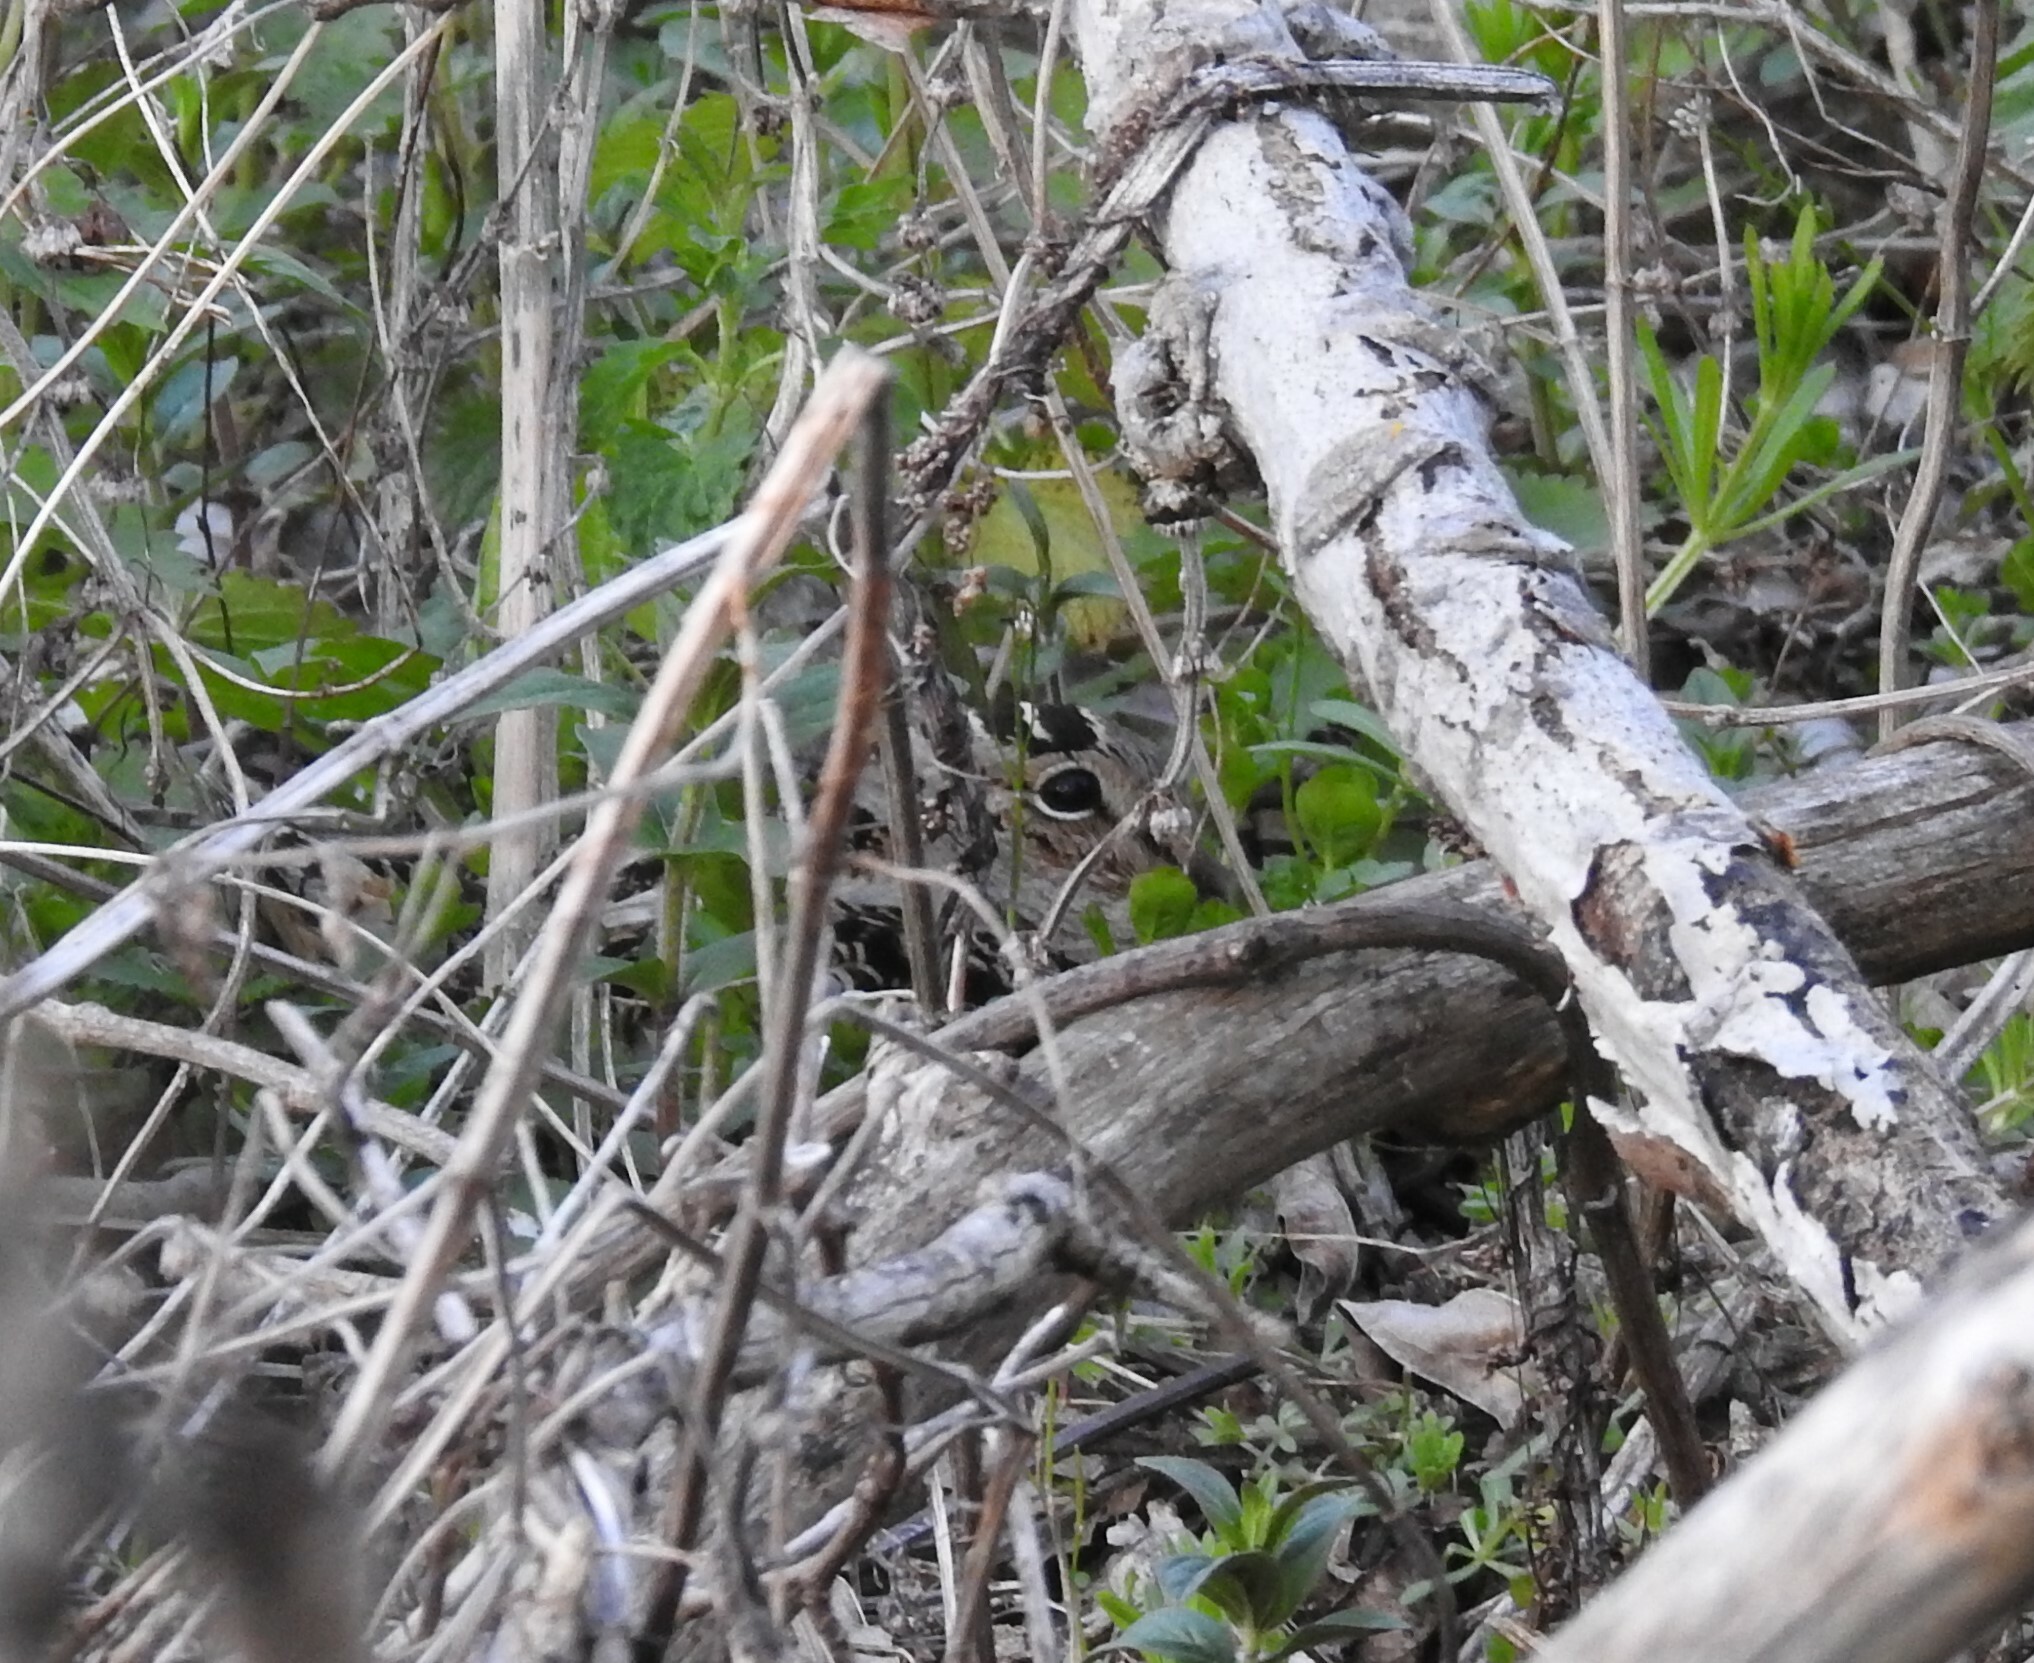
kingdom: Animalia
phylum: Chordata
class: Aves
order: Charadriiformes
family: Scolopacidae
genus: Scolopax
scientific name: Scolopax minor
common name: American woodcock
